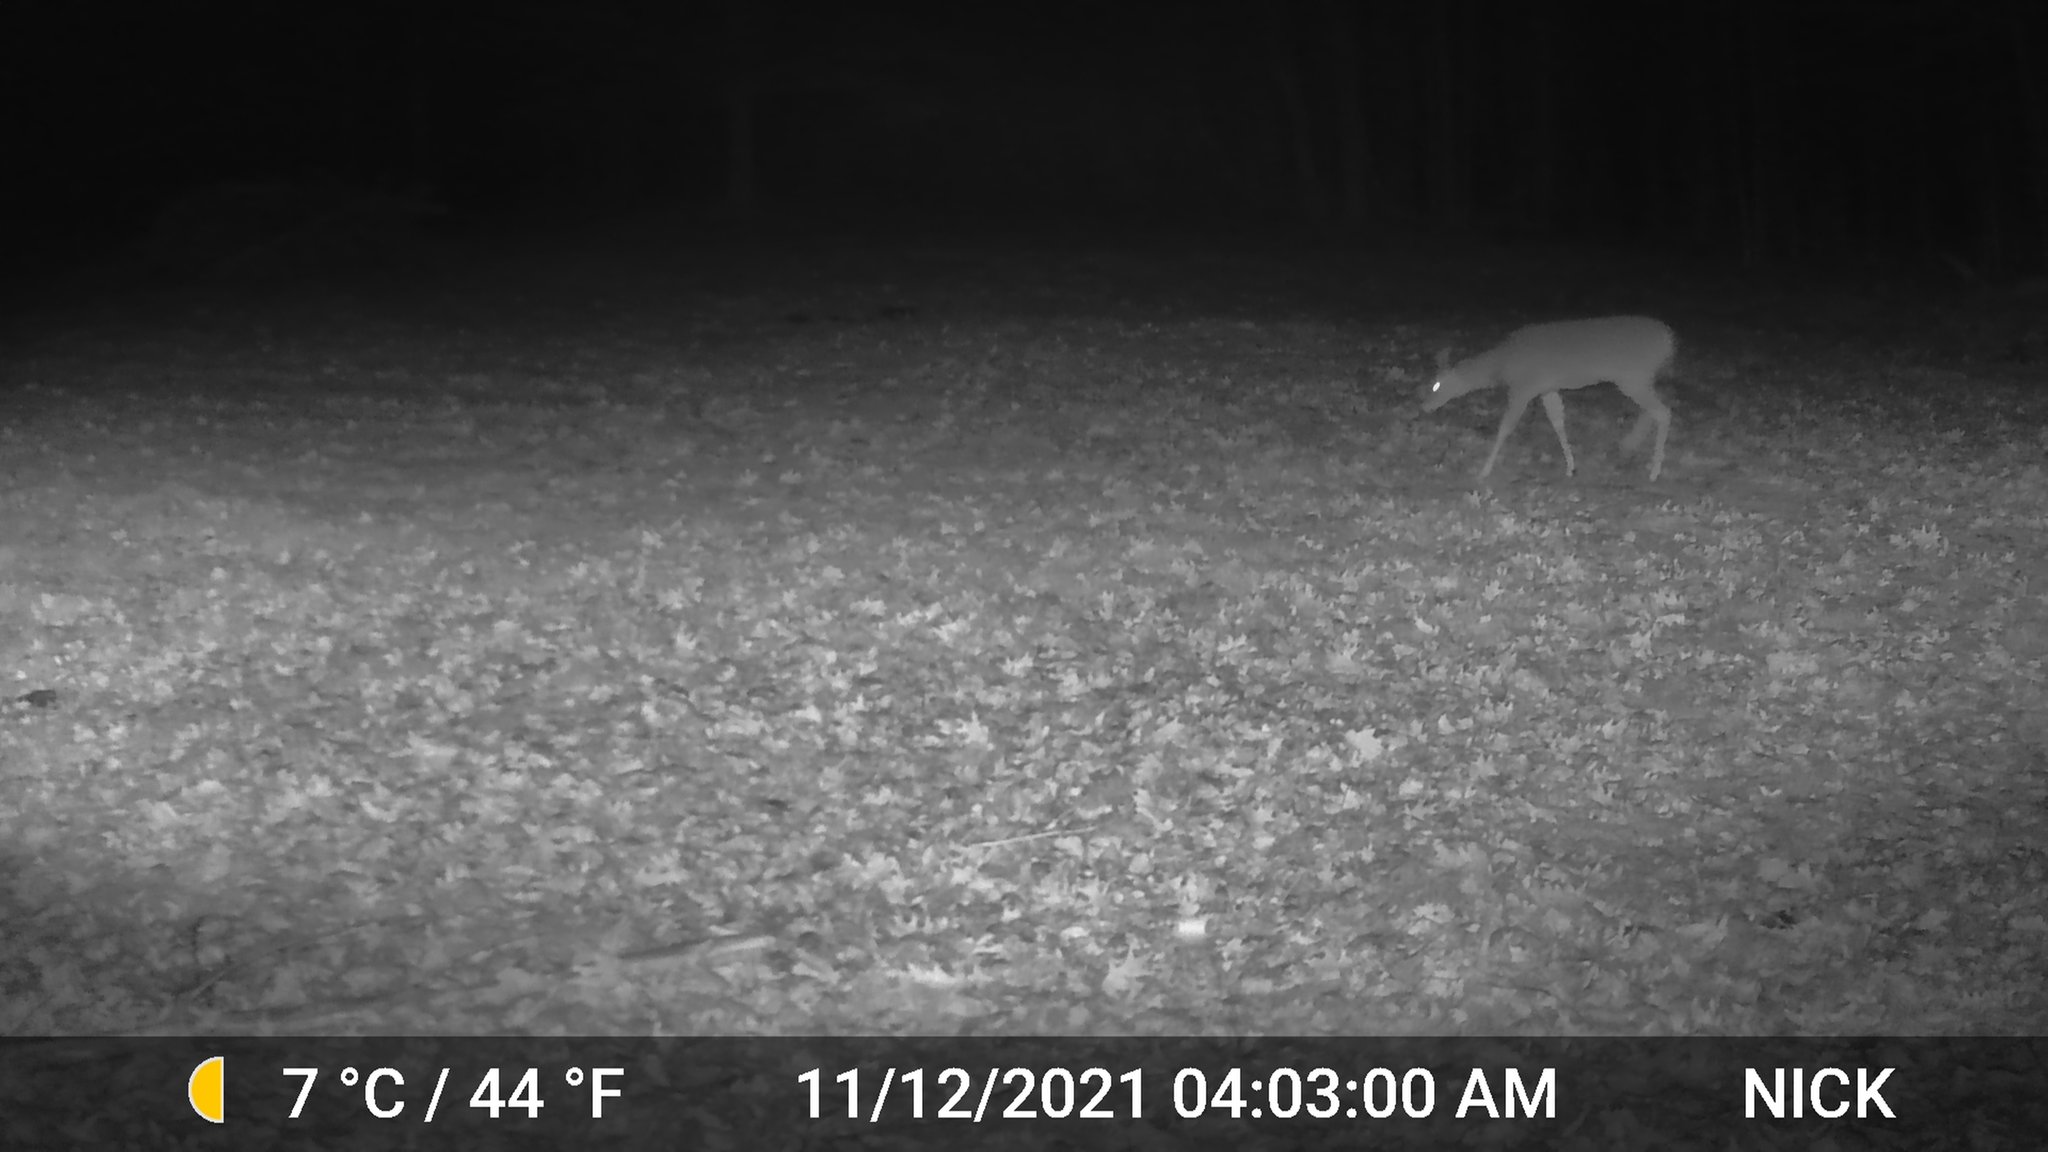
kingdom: Animalia
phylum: Chordata
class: Mammalia
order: Artiodactyla
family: Cervidae
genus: Odocoileus
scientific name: Odocoileus virginianus
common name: White-tailed deer
